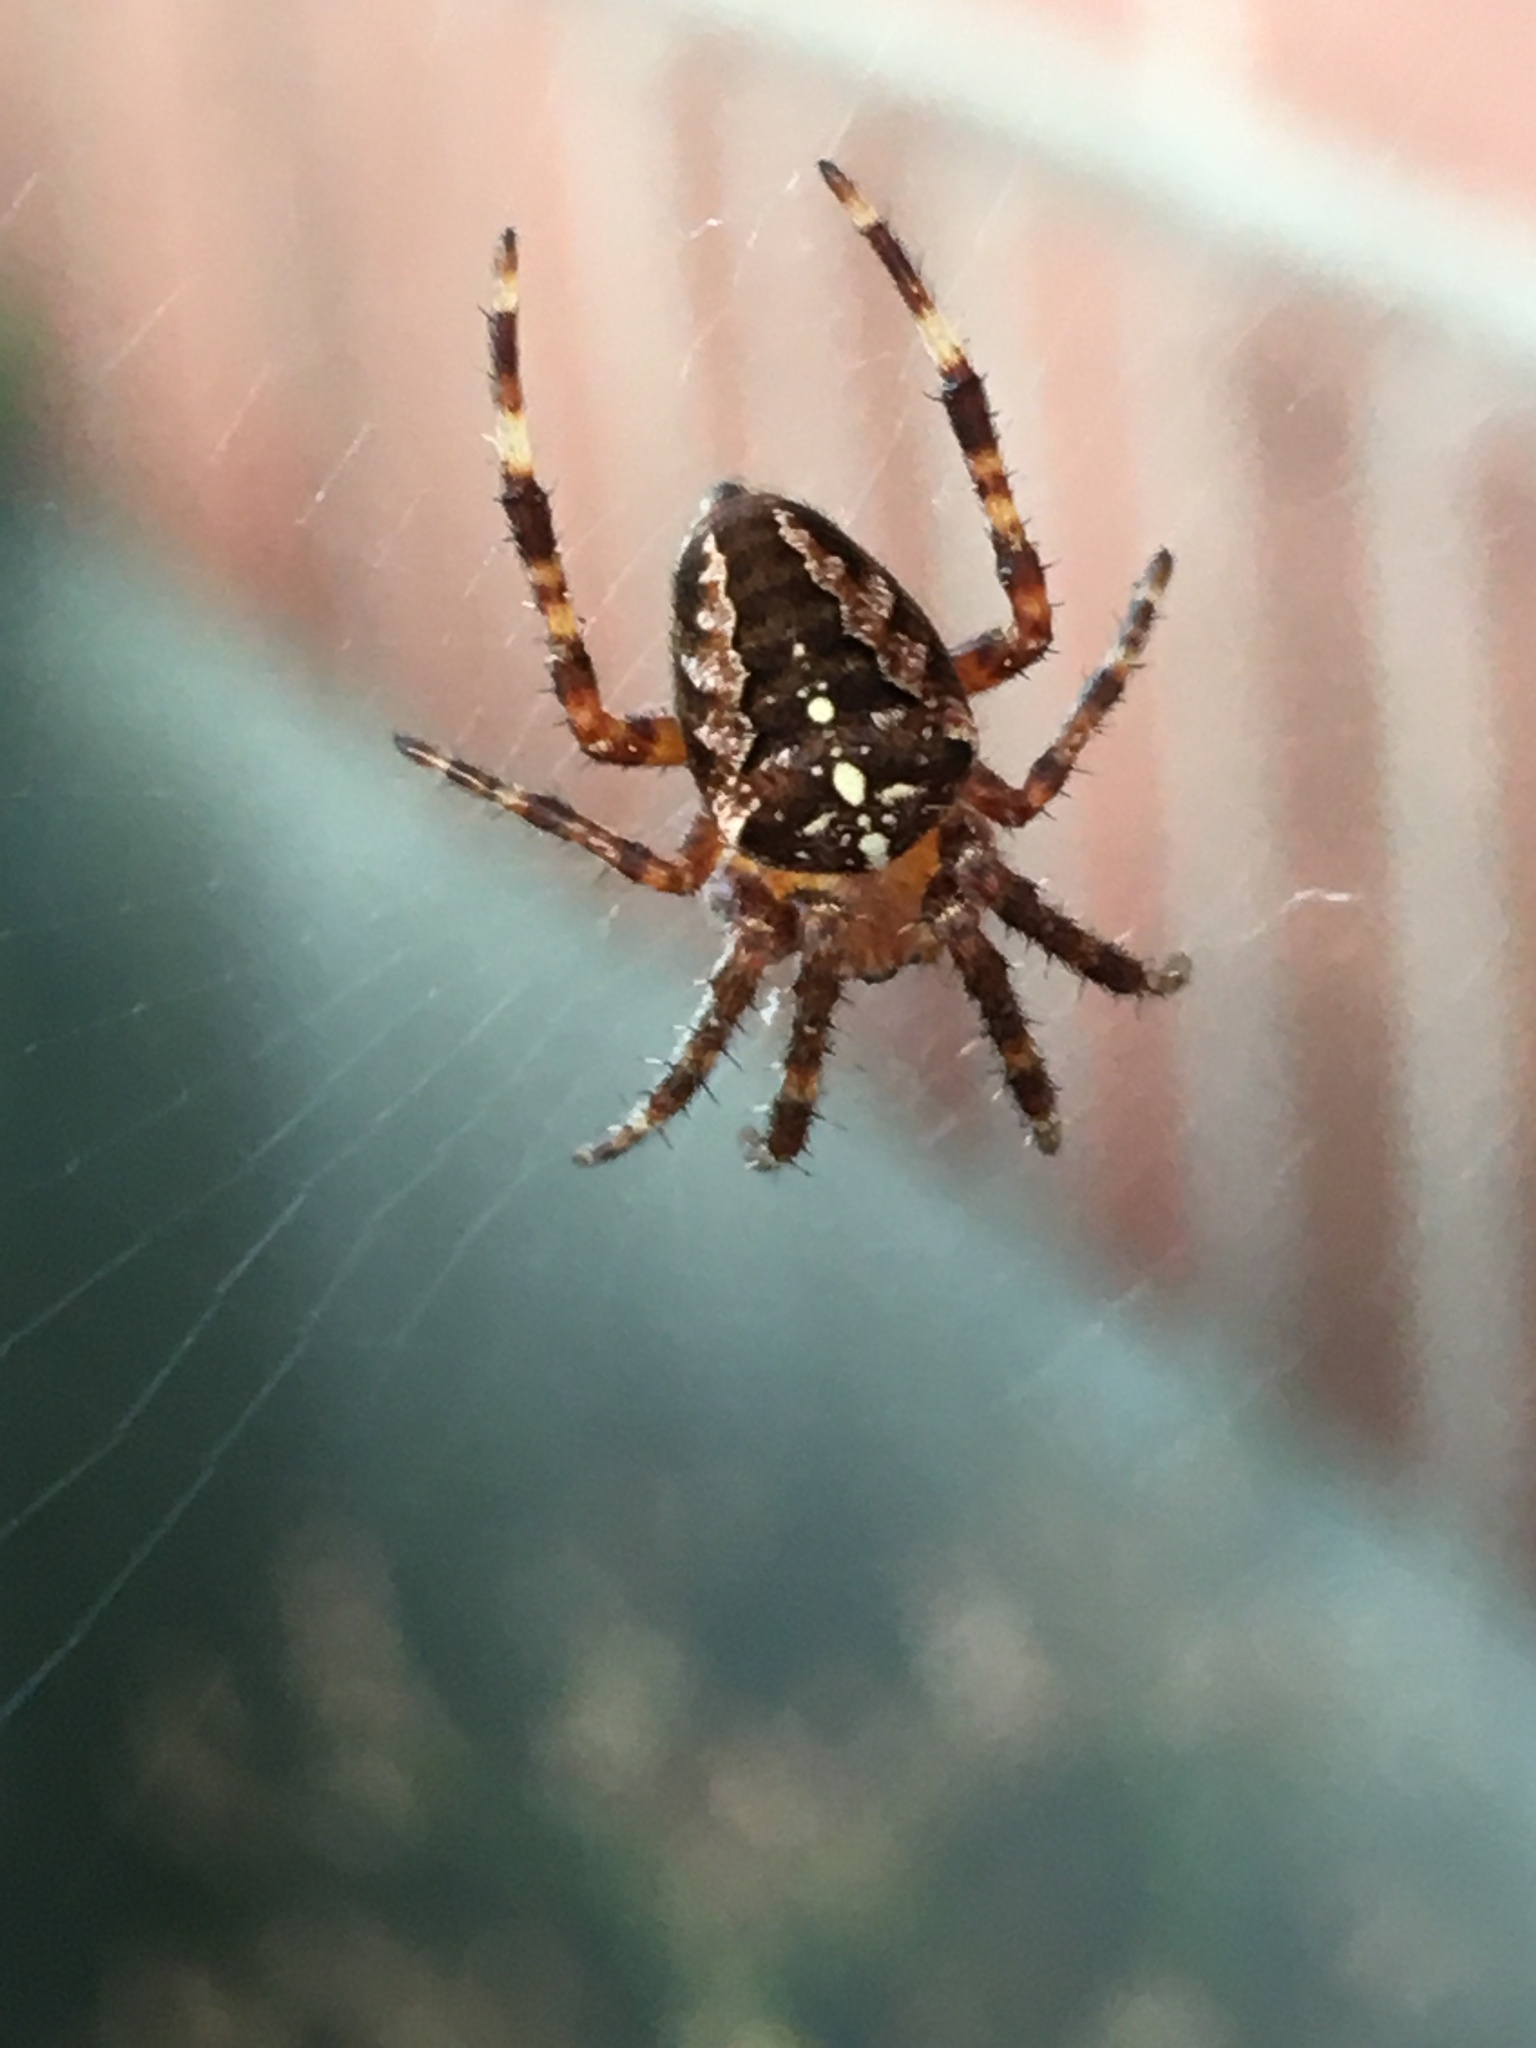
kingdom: Animalia
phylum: Arthropoda
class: Arachnida
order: Araneae
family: Araneidae
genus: Araneus
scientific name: Araneus diadematus
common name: Cross orbweaver
